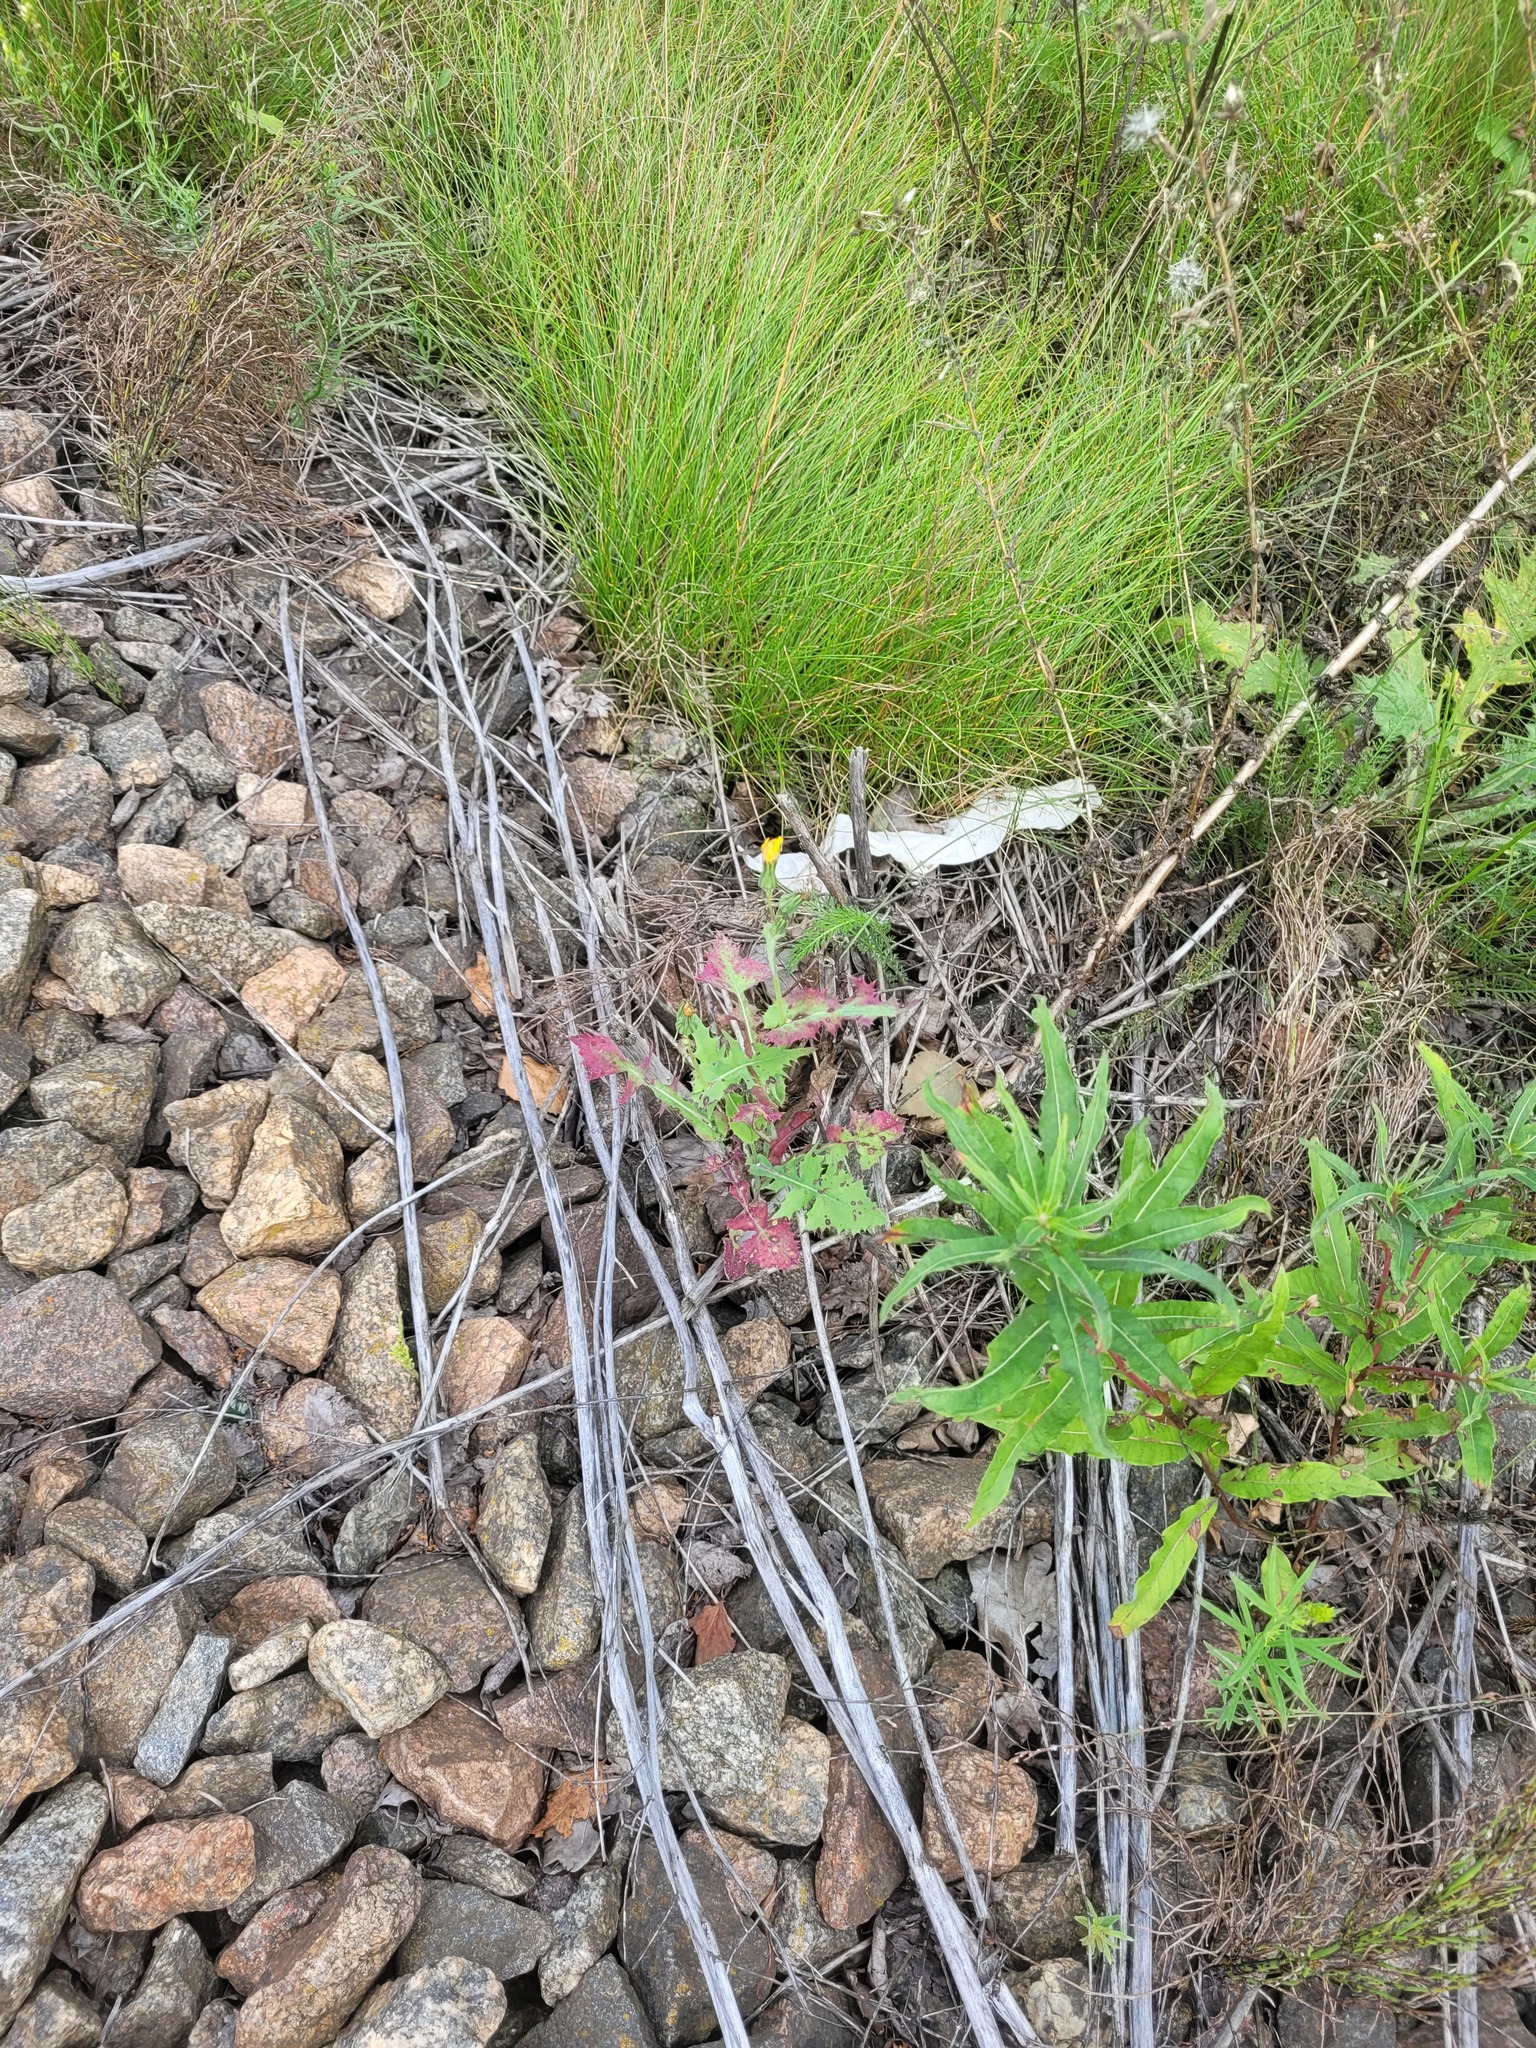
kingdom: Plantae
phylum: Tracheophyta
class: Magnoliopsida
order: Asterales
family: Asteraceae
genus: Sonchus
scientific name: Sonchus oleraceus
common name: Common sowthistle
